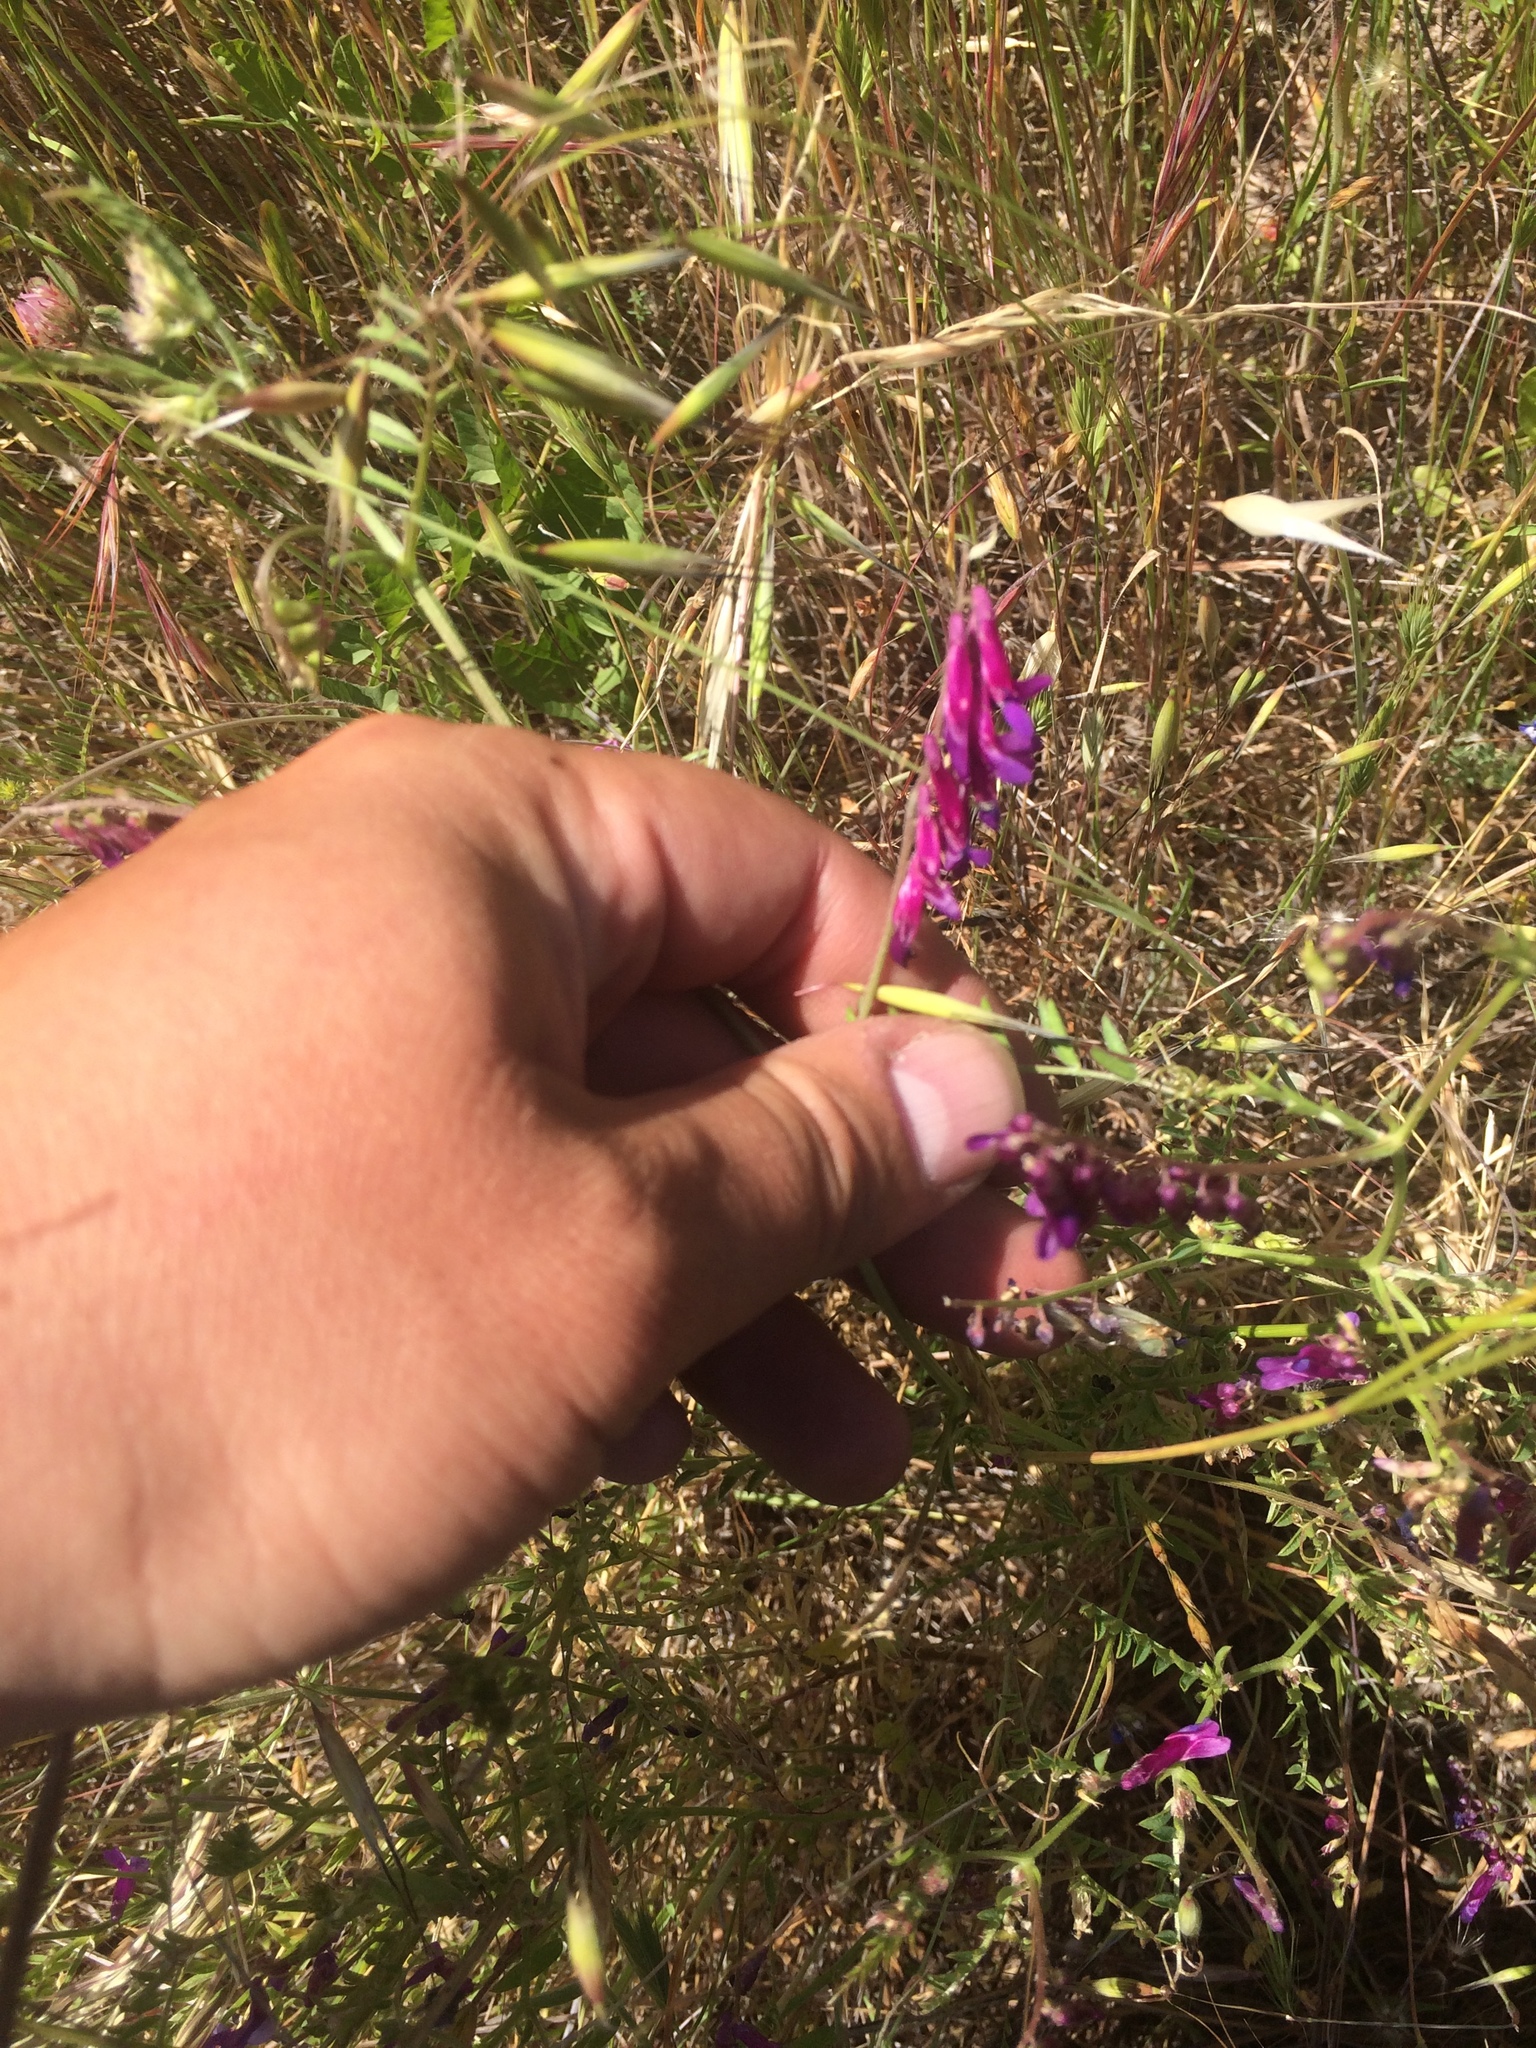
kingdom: Plantae
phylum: Tracheophyta
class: Magnoliopsida
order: Fabales
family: Fabaceae
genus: Vicia
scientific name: Vicia villosa
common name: Fodder vetch
